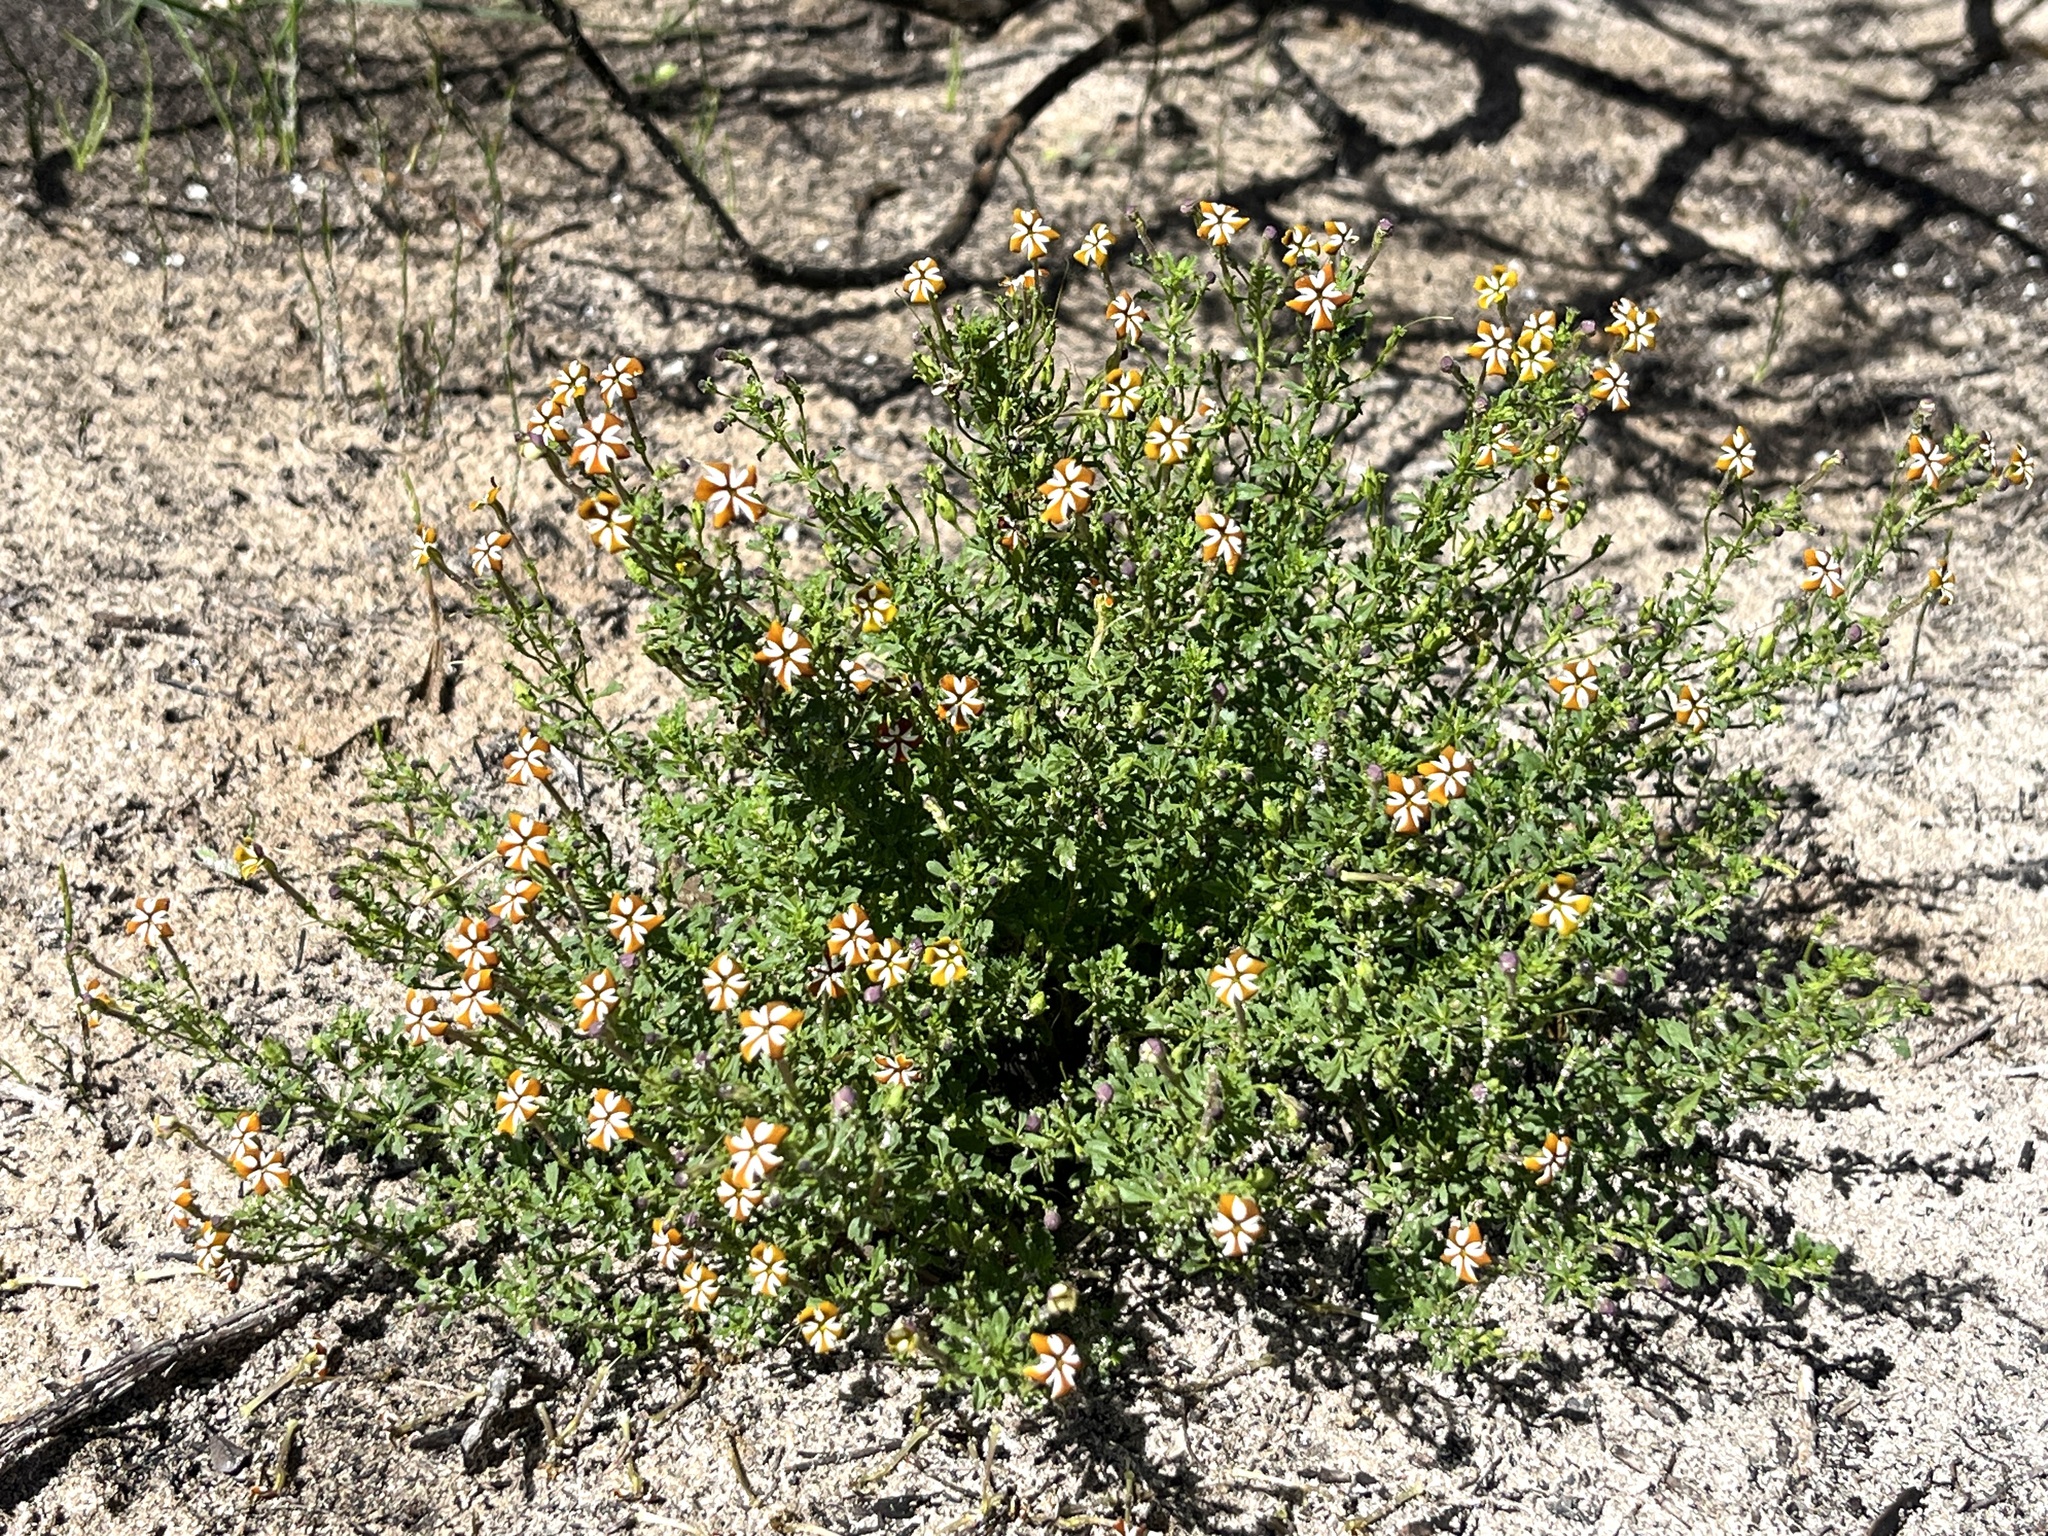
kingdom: Plantae
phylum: Tracheophyta
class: Magnoliopsida
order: Lamiales
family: Scrophulariaceae
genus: Jamesbrittenia
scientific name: Jamesbrittenia albomarginata
